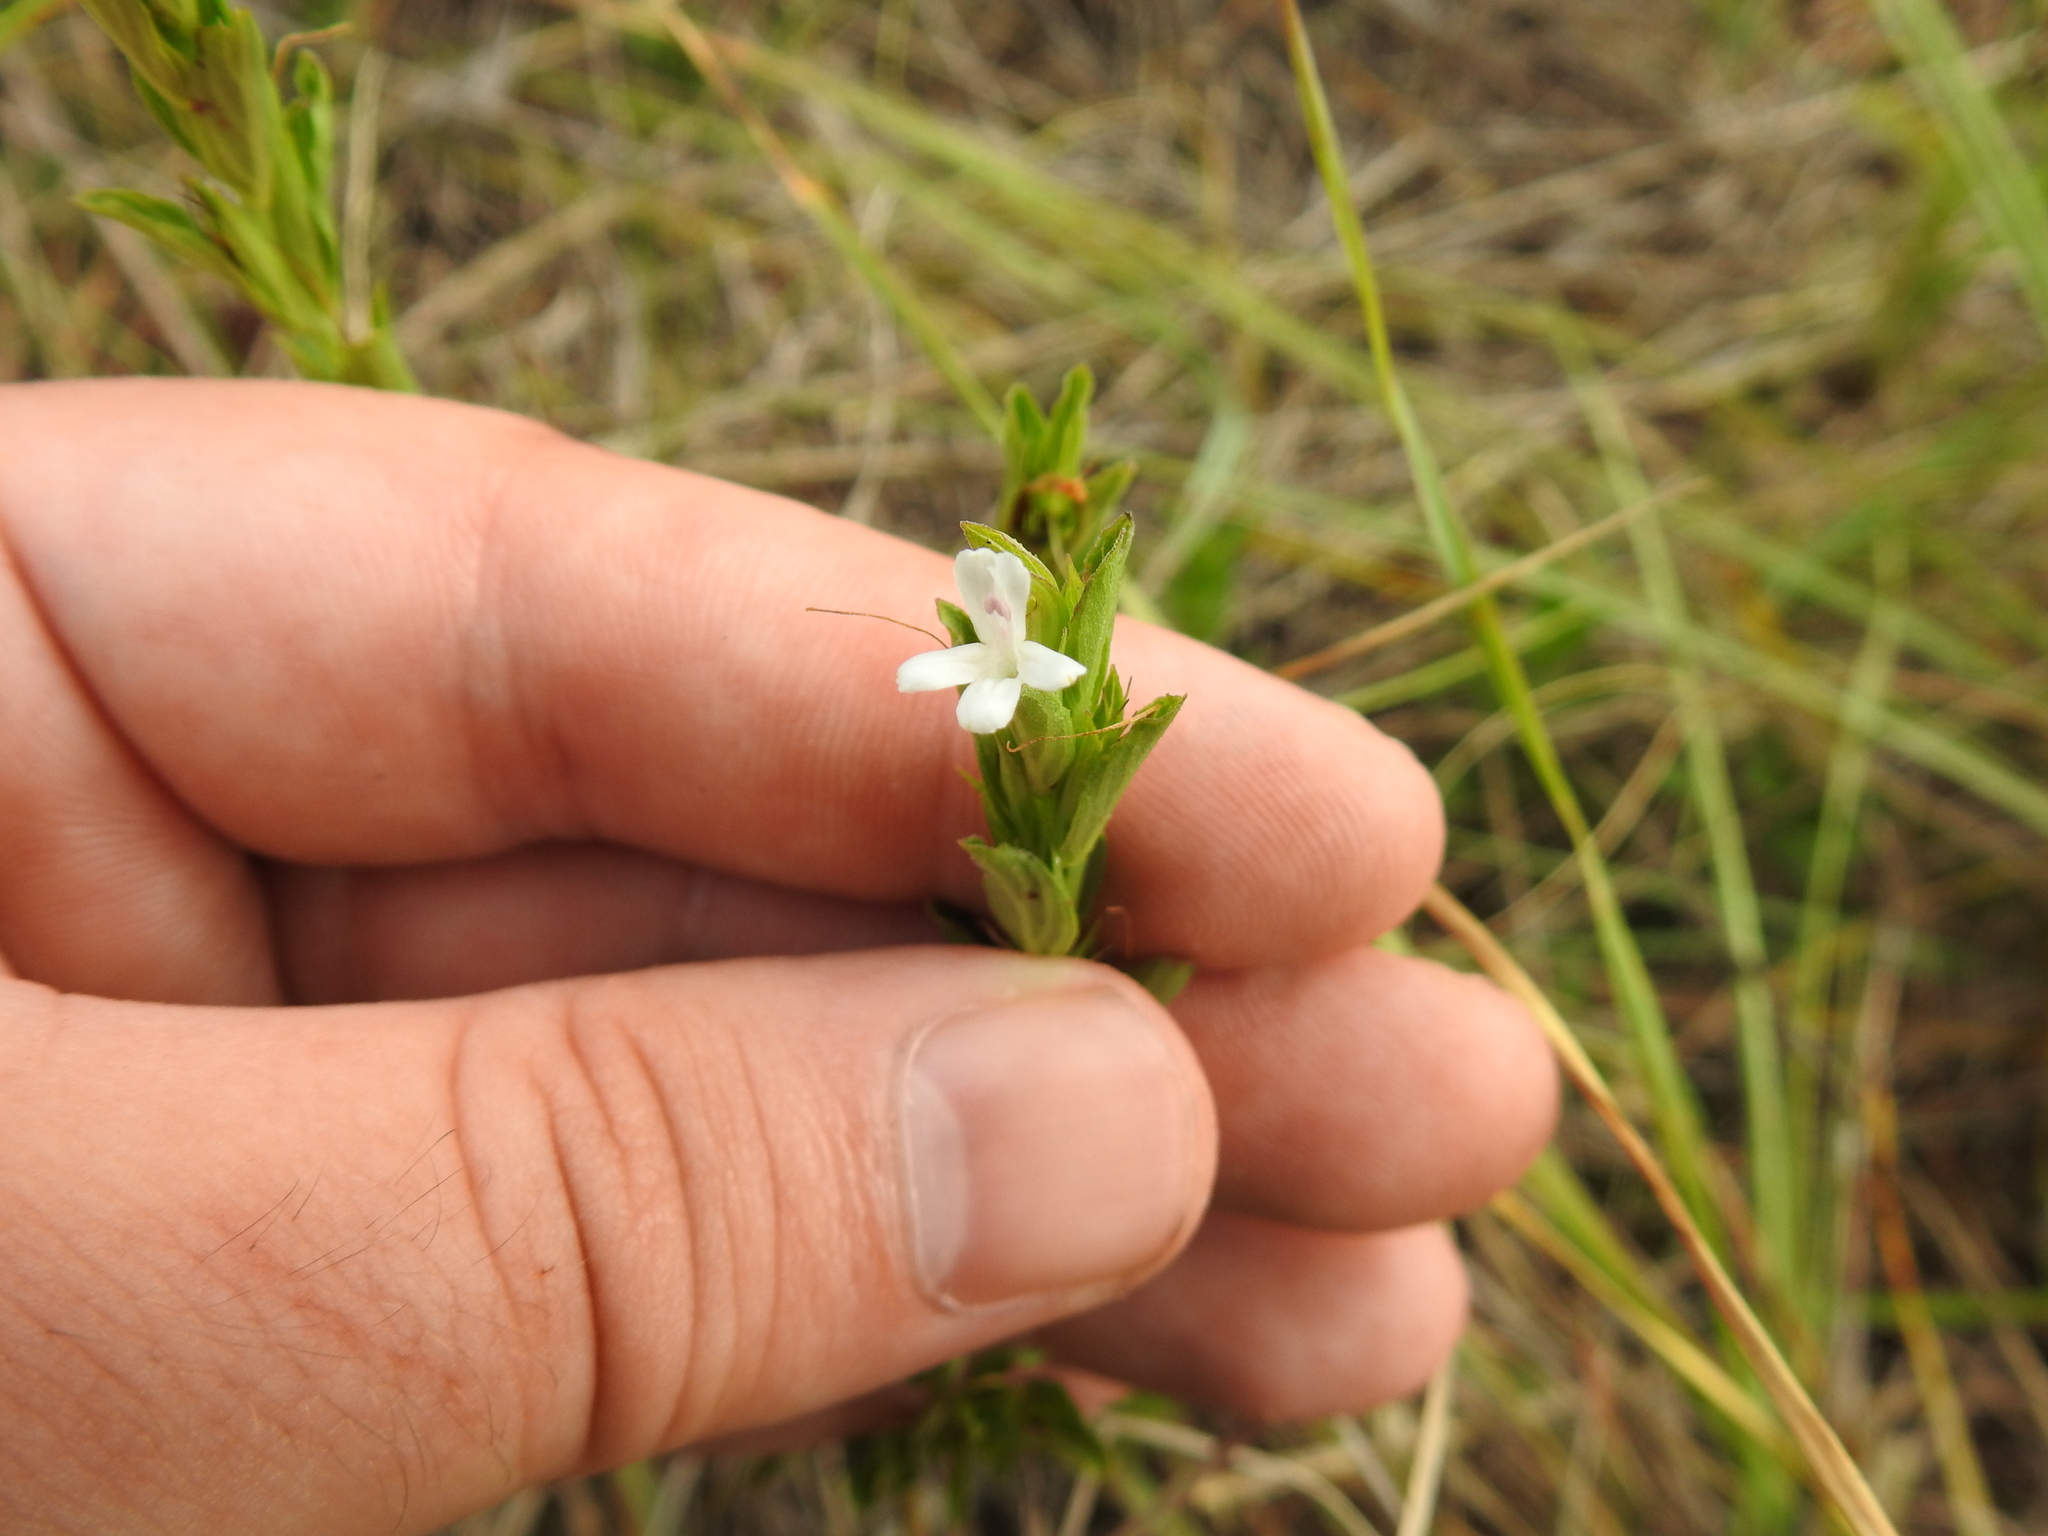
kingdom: Plantae
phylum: Tracheophyta
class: Magnoliopsida
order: Lamiales
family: Acanthaceae
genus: Dyschoriste
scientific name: Dyschoriste costata
